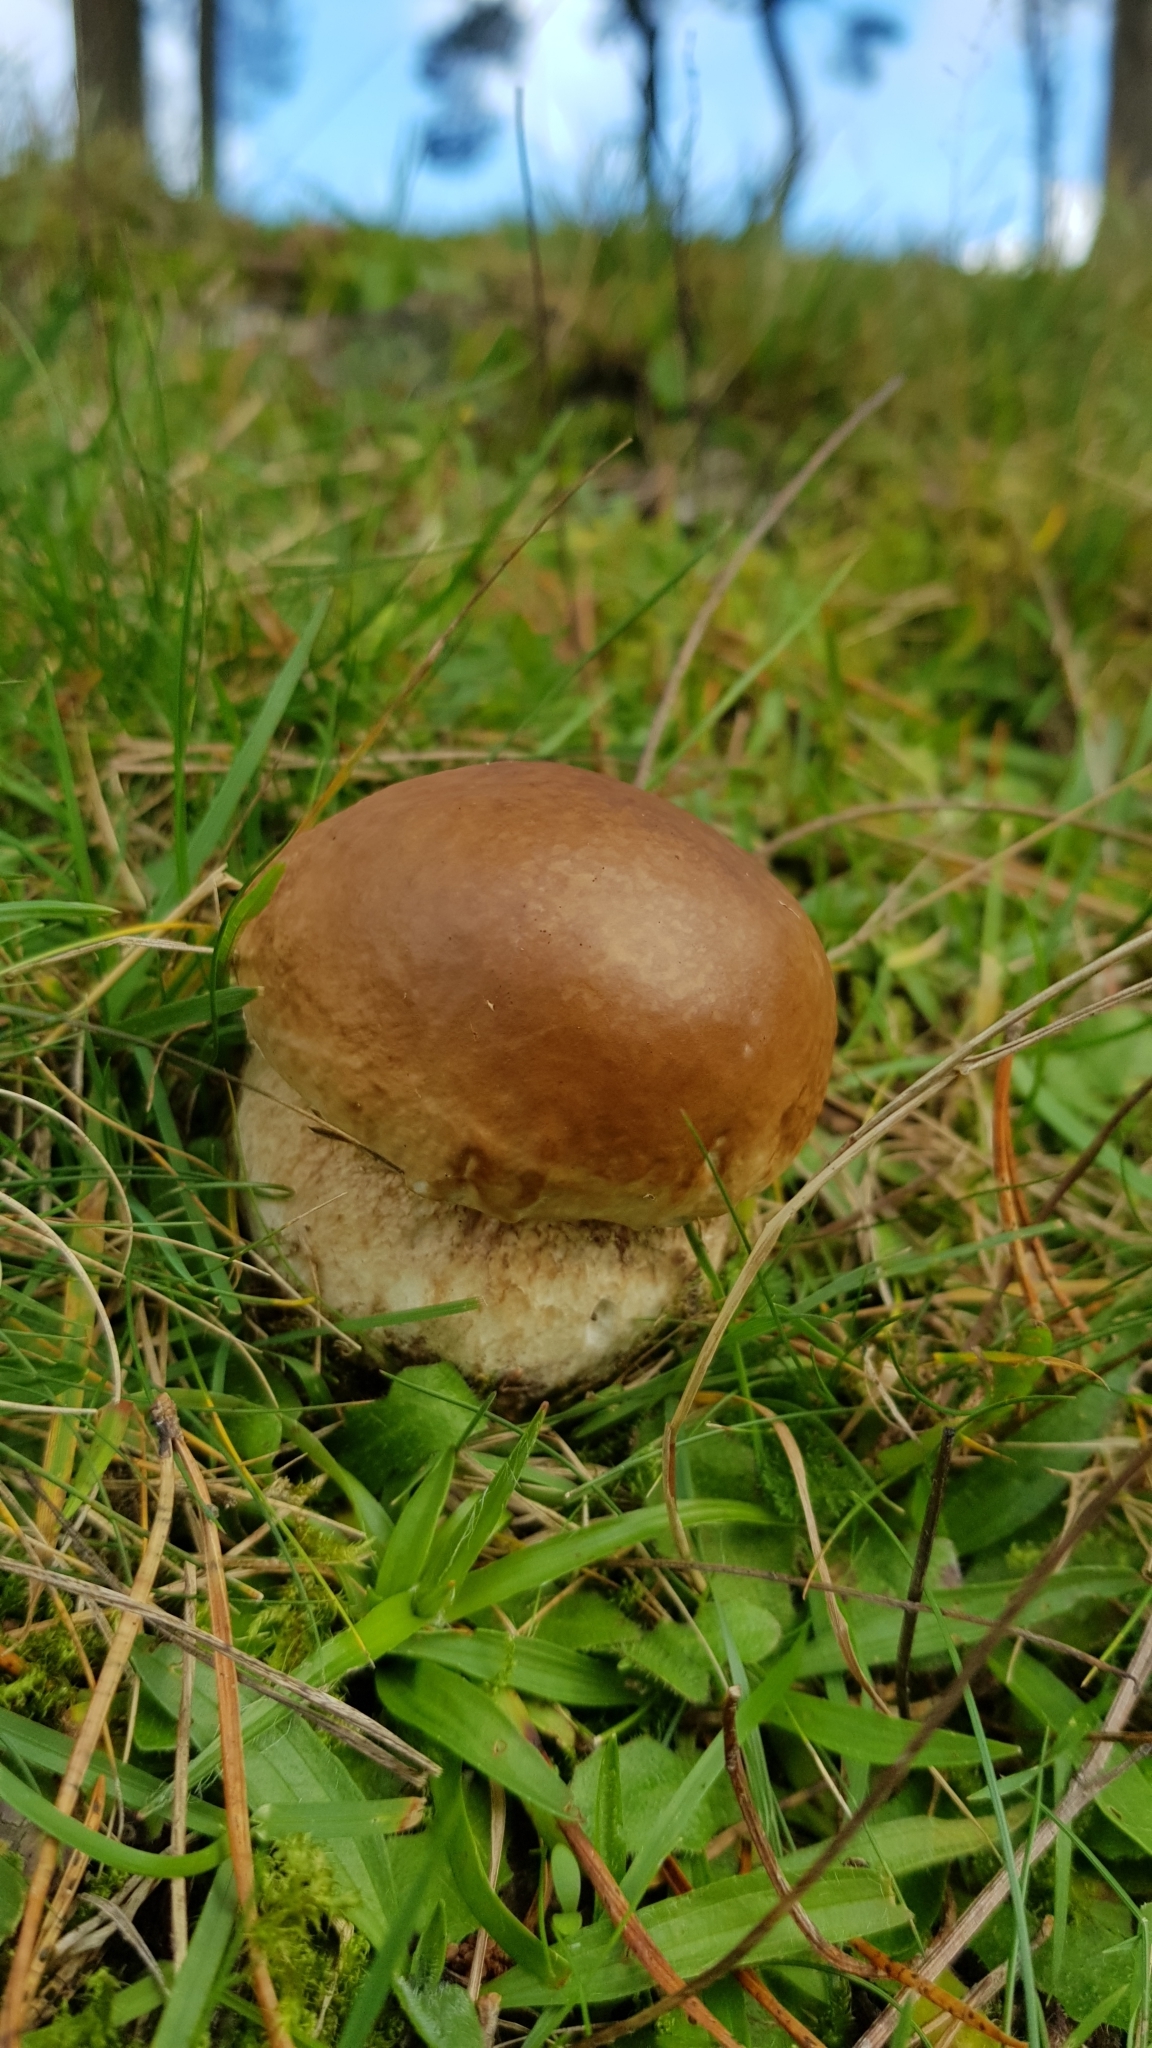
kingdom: Fungi
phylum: Basidiomycota
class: Agaricomycetes
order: Boletales
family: Boletaceae
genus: Boletus
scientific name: Boletus edulis
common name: Cep
